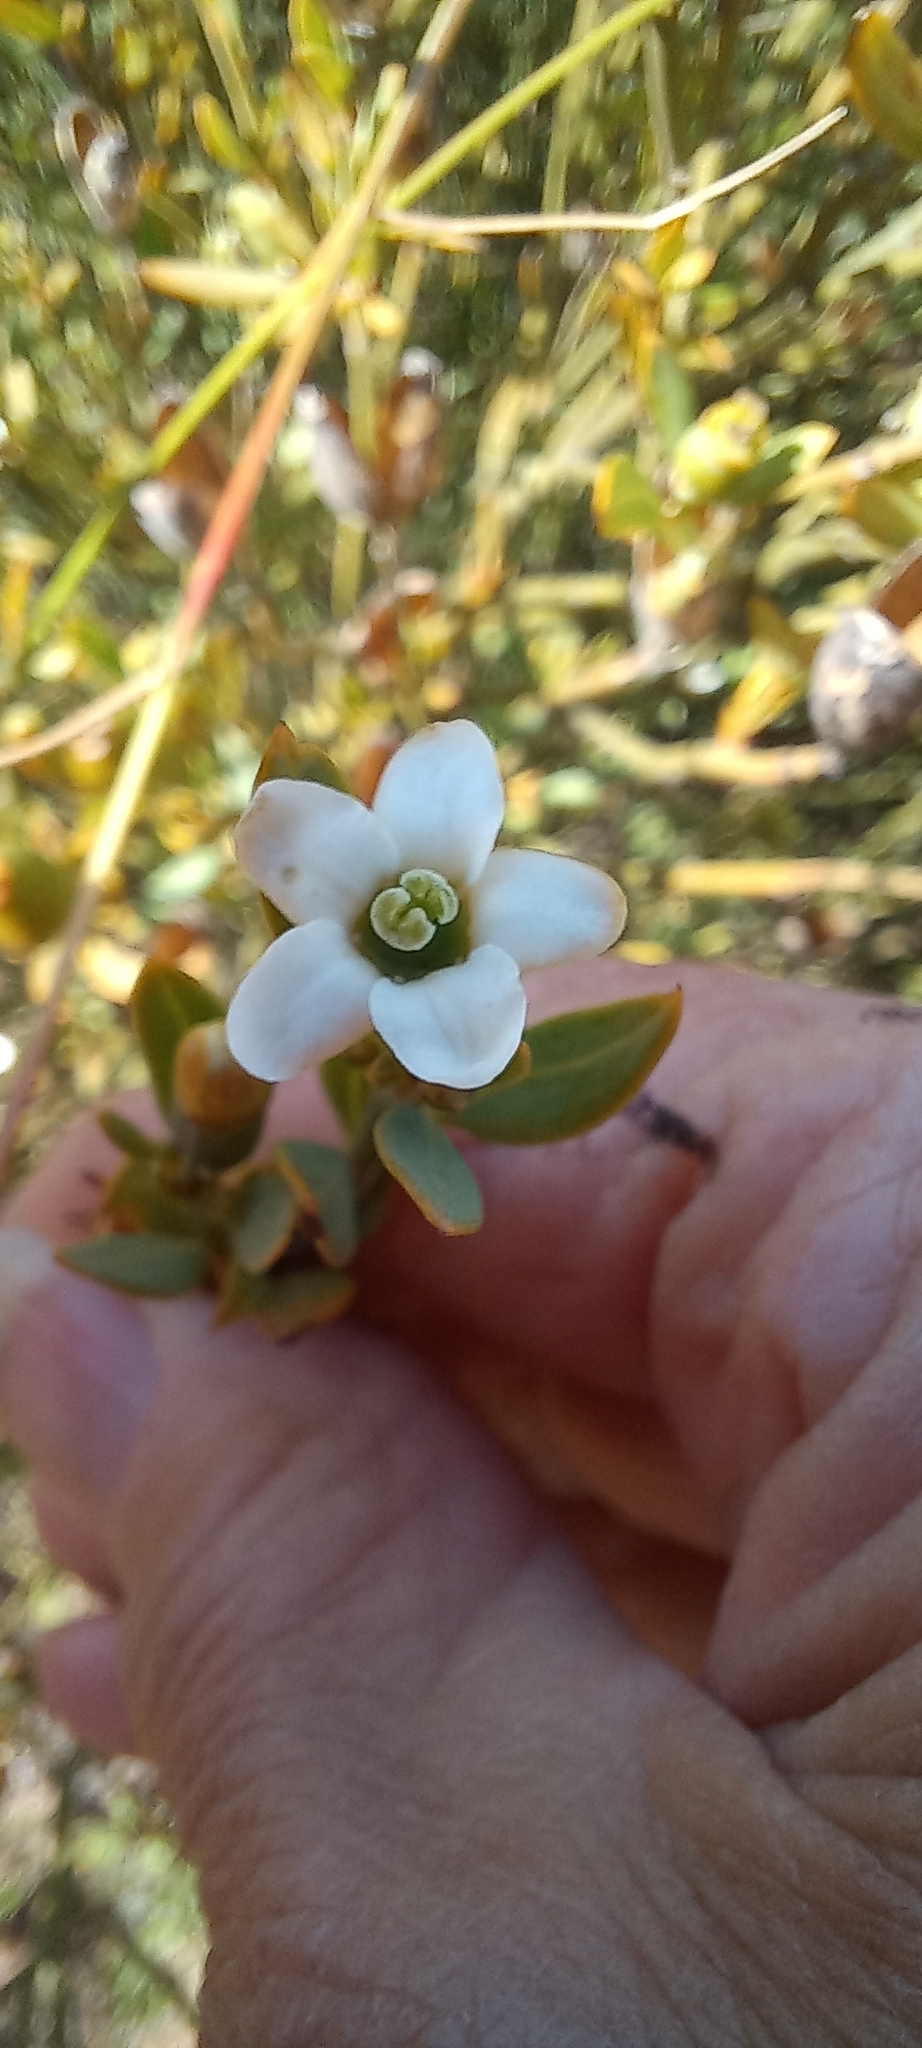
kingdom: Plantae
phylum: Tracheophyta
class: Magnoliopsida
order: Solanales
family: Montiniaceae
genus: Montinia
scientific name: Montinia caryophyllacea
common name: Wild clove-bush
